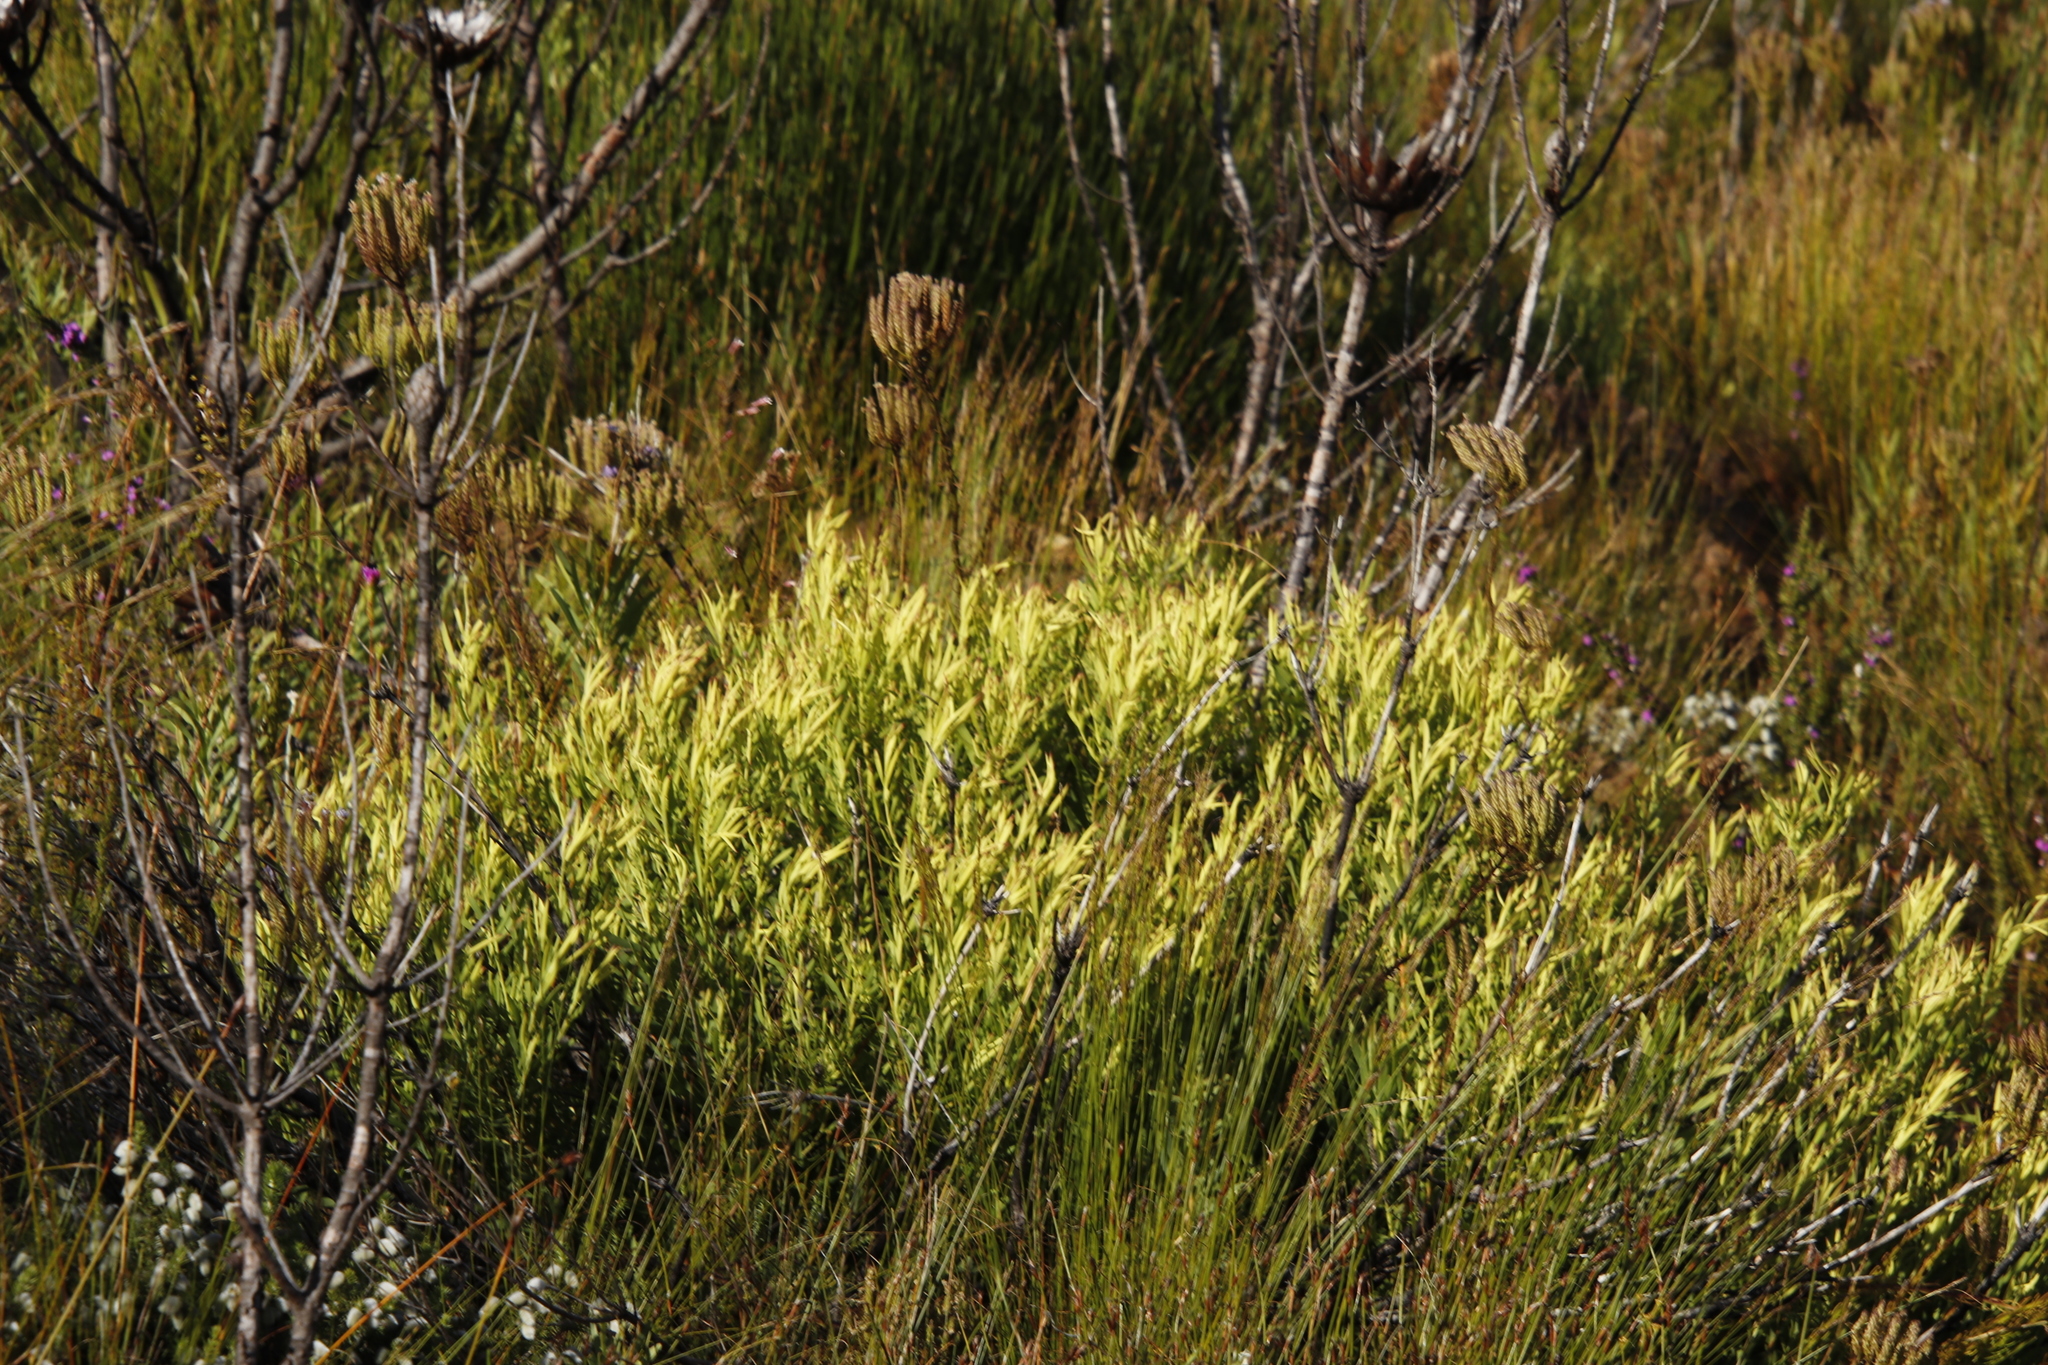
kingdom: Plantae
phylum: Tracheophyta
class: Magnoliopsida
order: Proteales
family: Proteaceae
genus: Leucadendron
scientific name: Leucadendron salignum
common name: Common sunshine conebush
